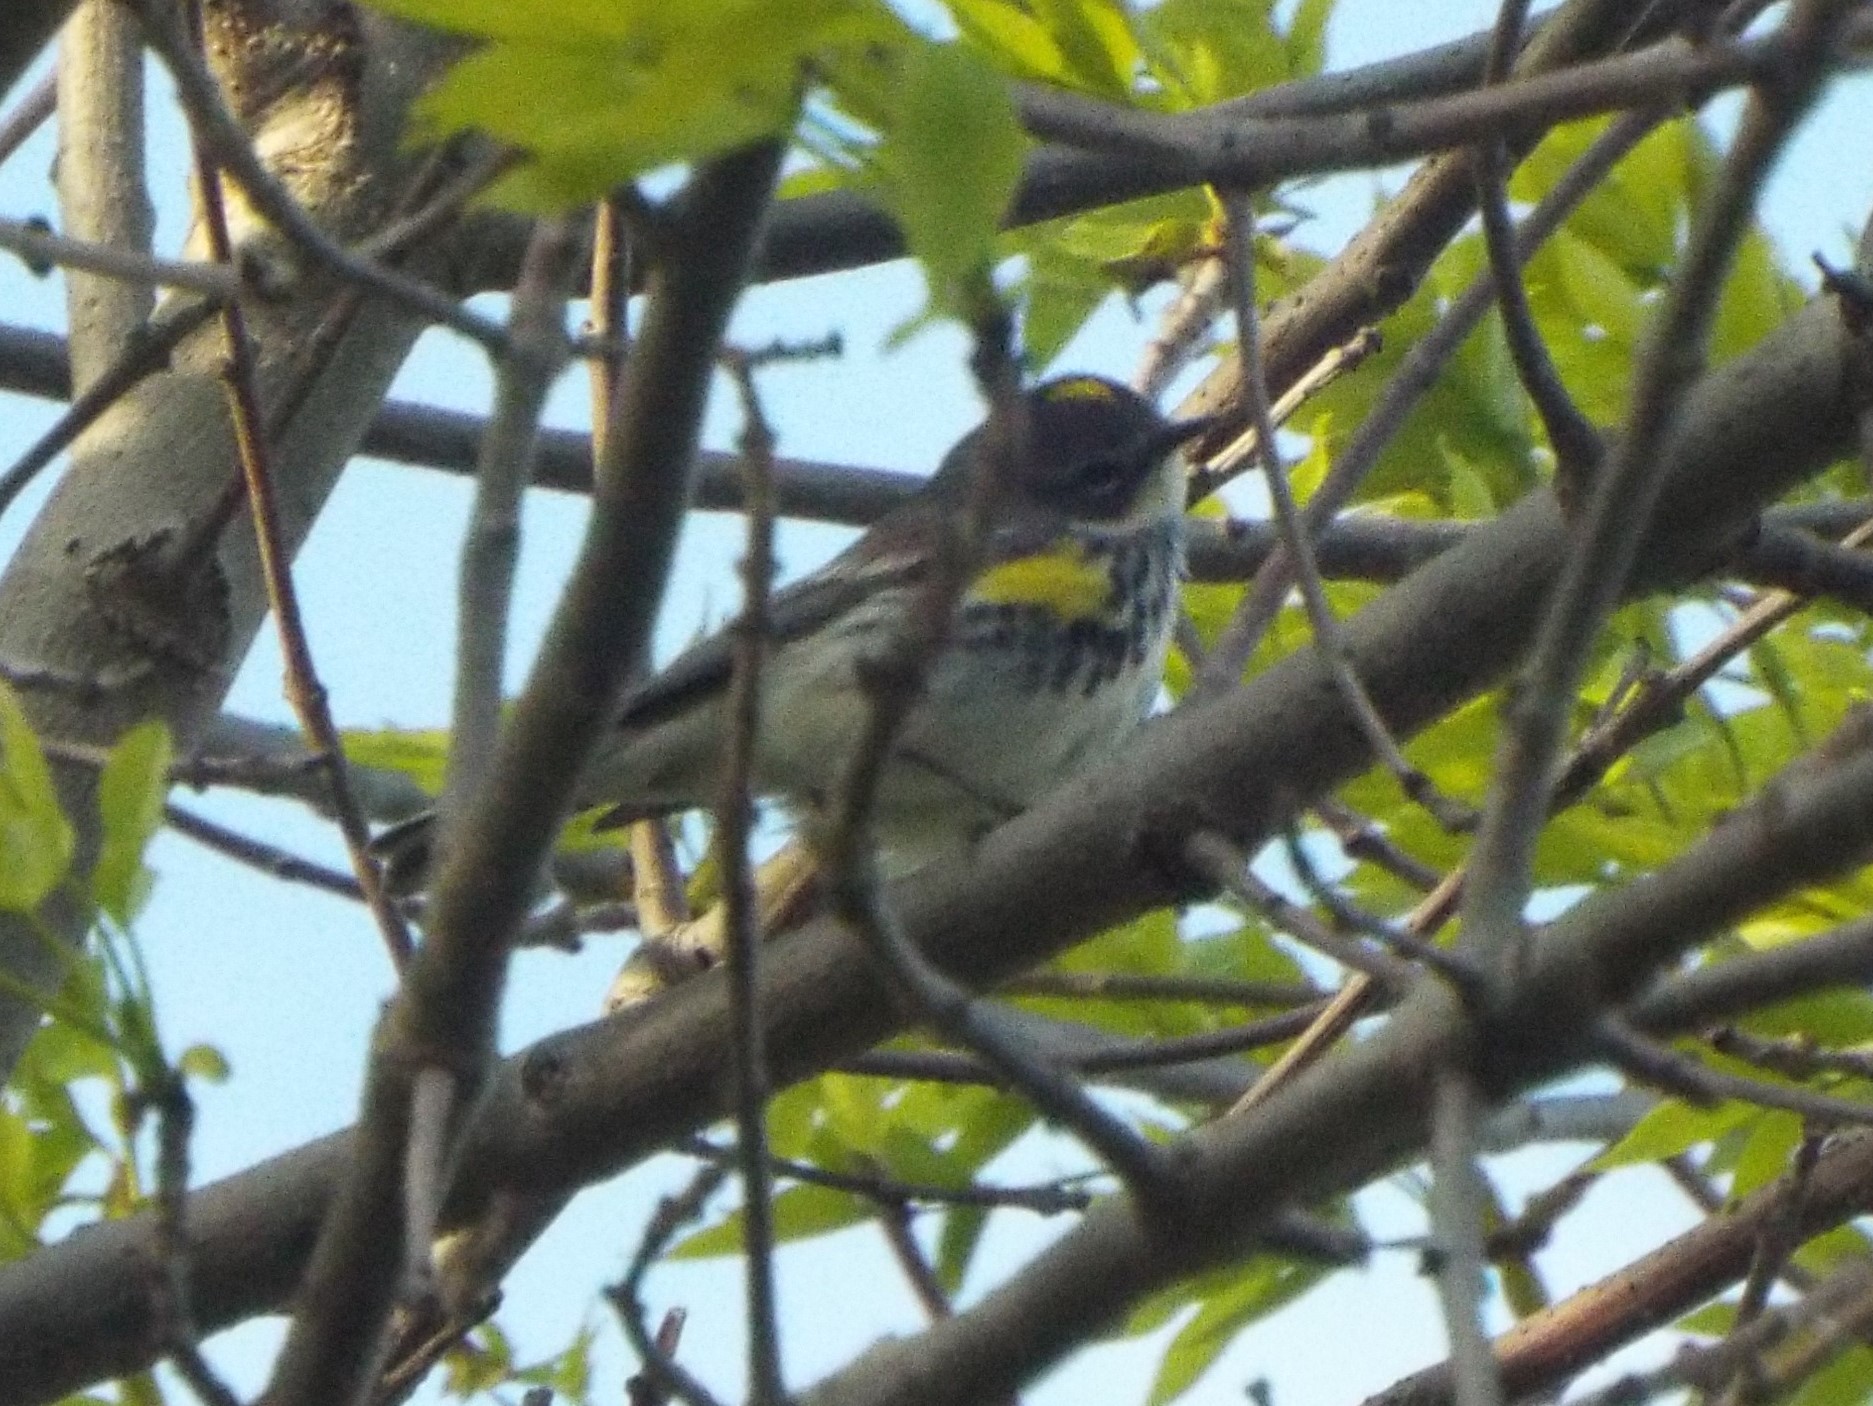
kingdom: Animalia
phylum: Chordata
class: Aves
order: Passeriformes
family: Parulidae
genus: Setophaga
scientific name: Setophaga coronata
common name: Myrtle warbler
